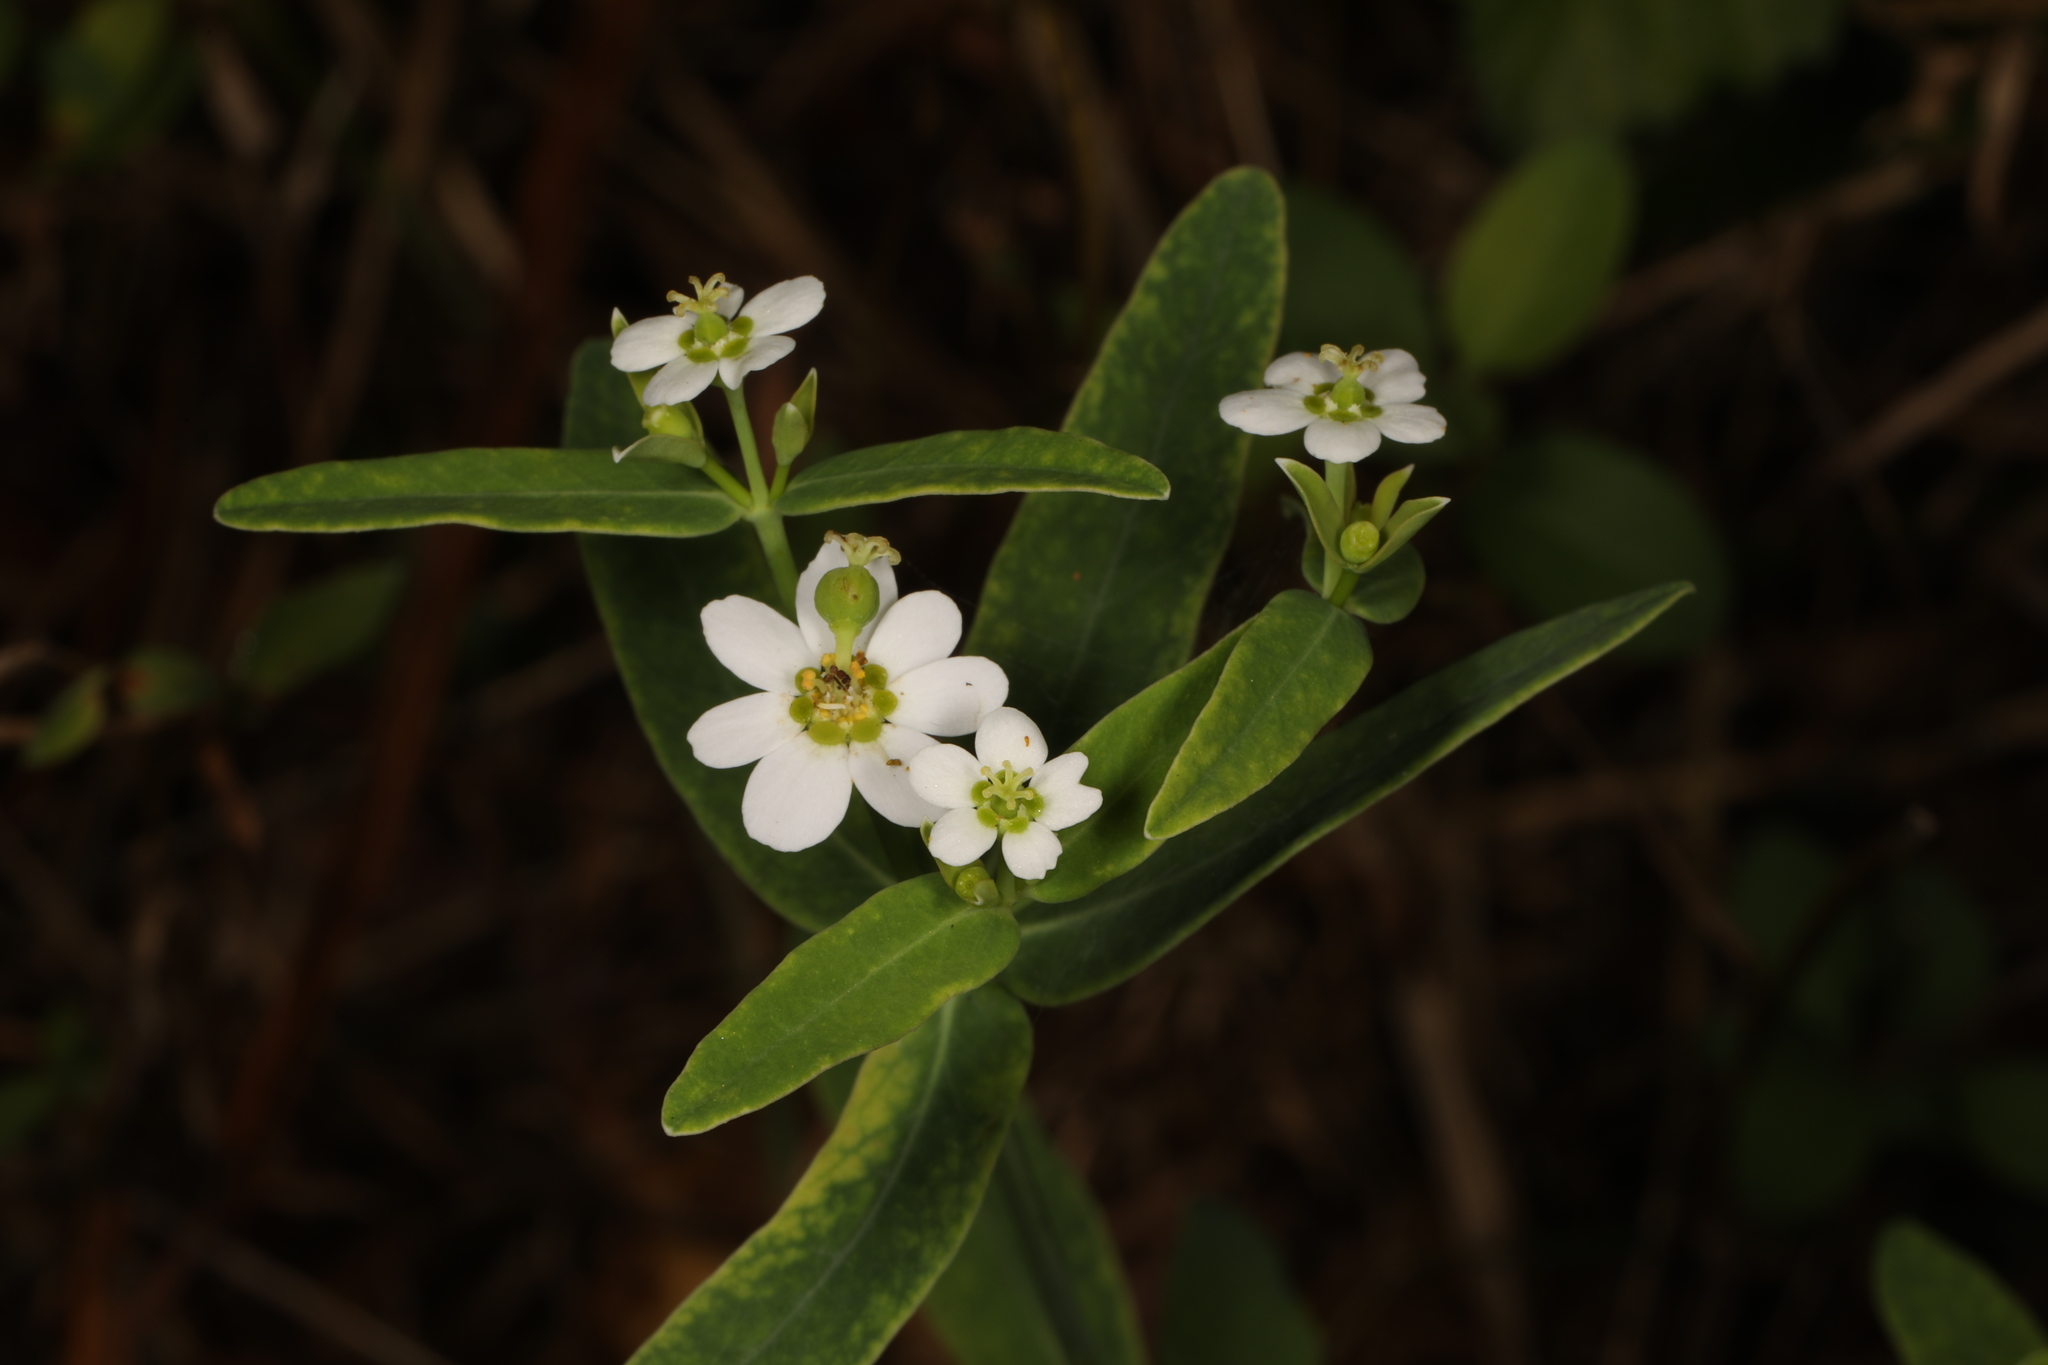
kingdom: Plantae
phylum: Tracheophyta
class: Magnoliopsida
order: Malpighiales
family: Euphorbiaceae
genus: Euphorbia
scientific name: Euphorbia corollata
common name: Flowering spurge
